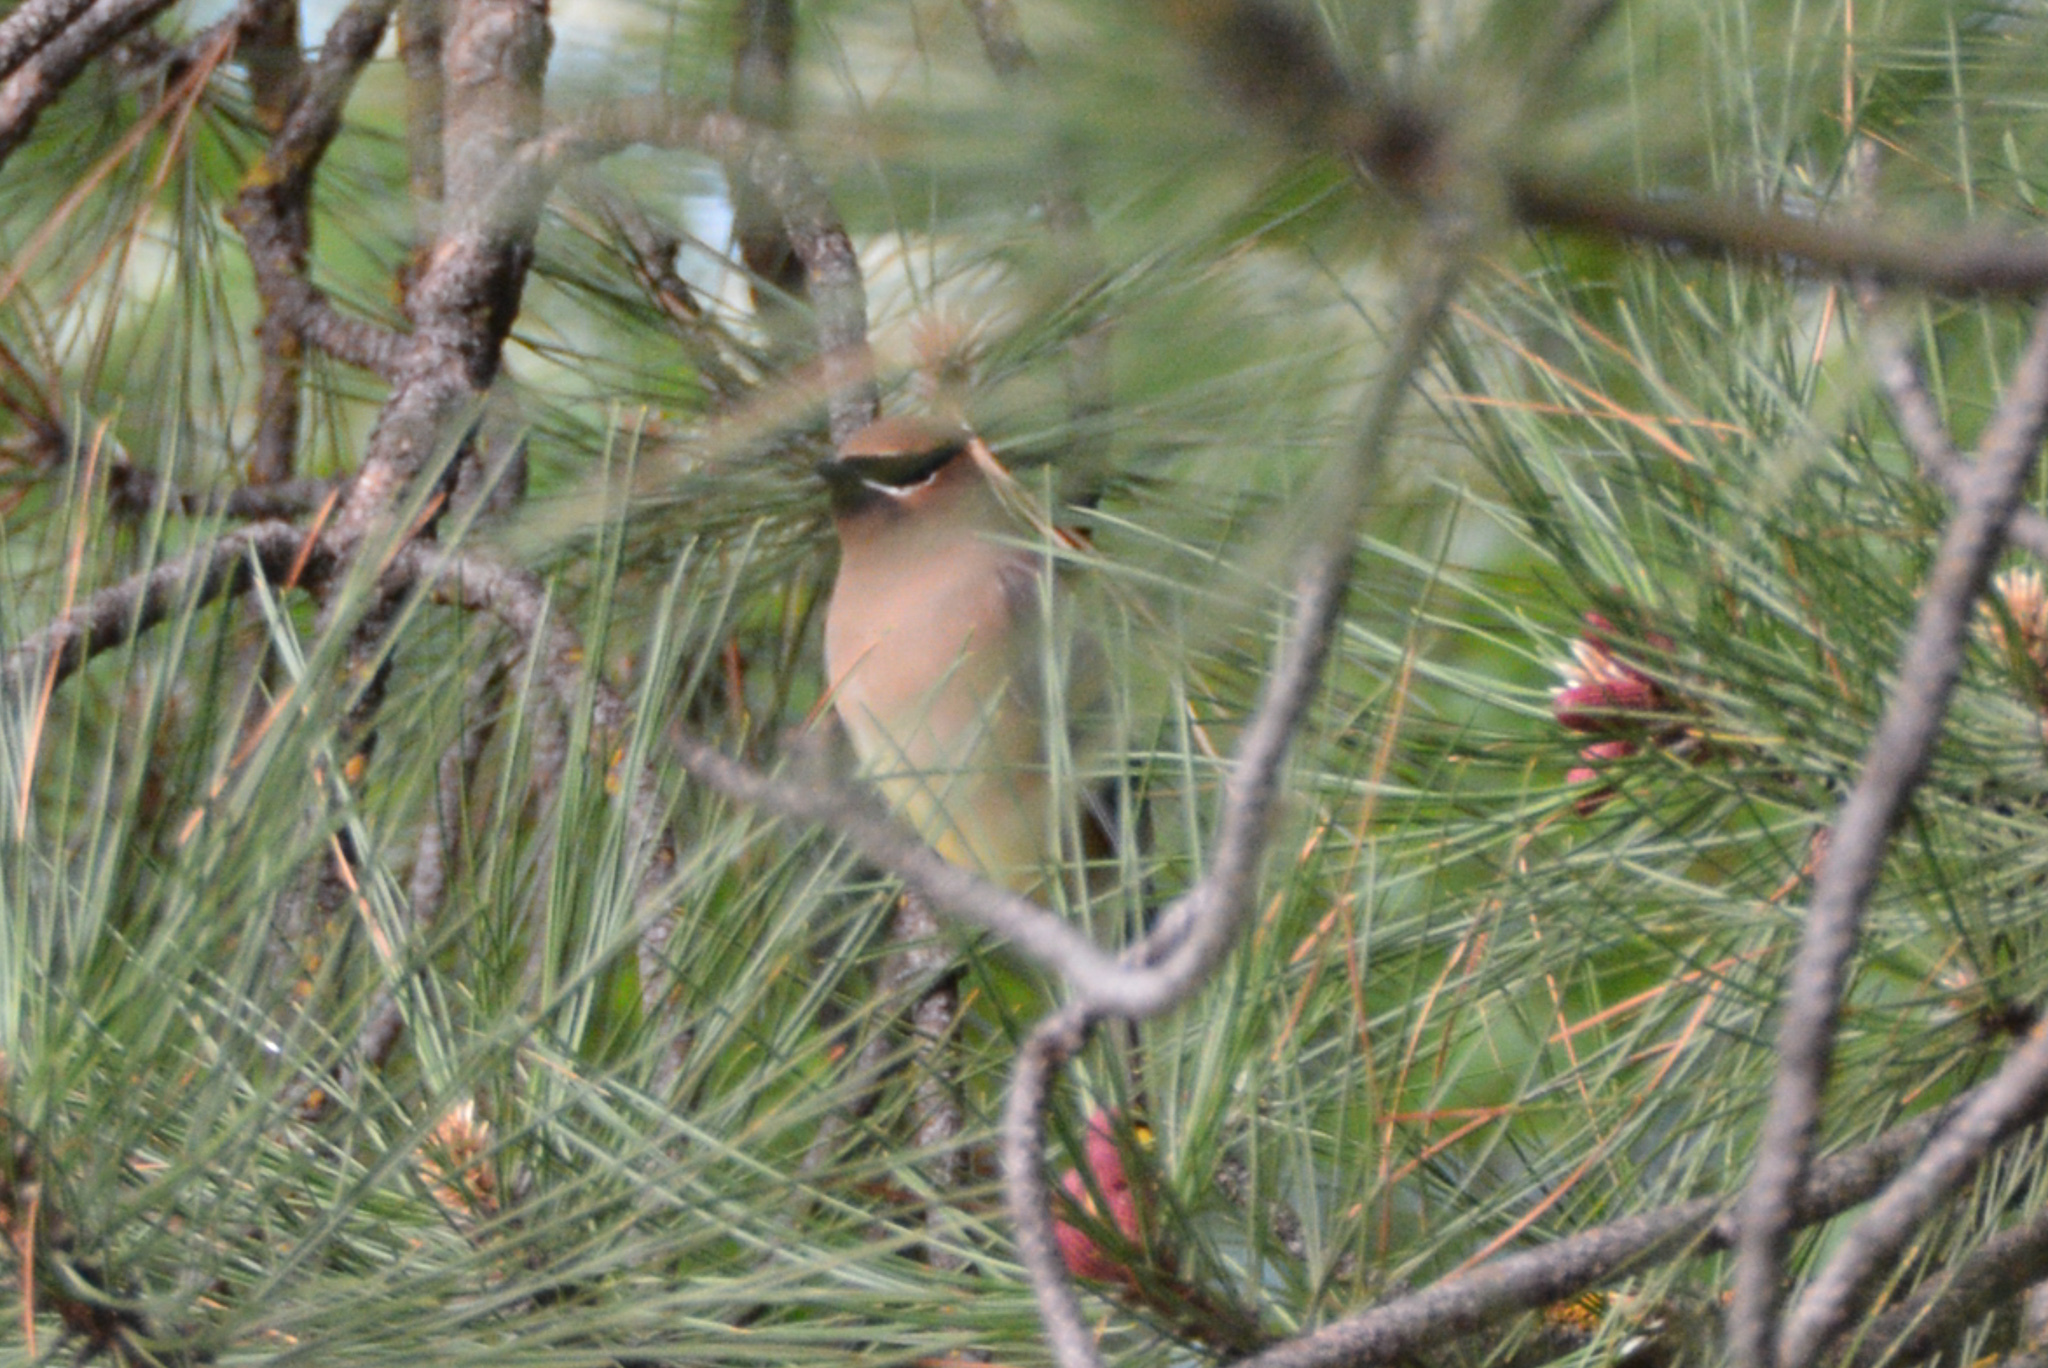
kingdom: Animalia
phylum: Chordata
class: Aves
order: Passeriformes
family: Bombycillidae
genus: Bombycilla
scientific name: Bombycilla cedrorum
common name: Cedar waxwing
